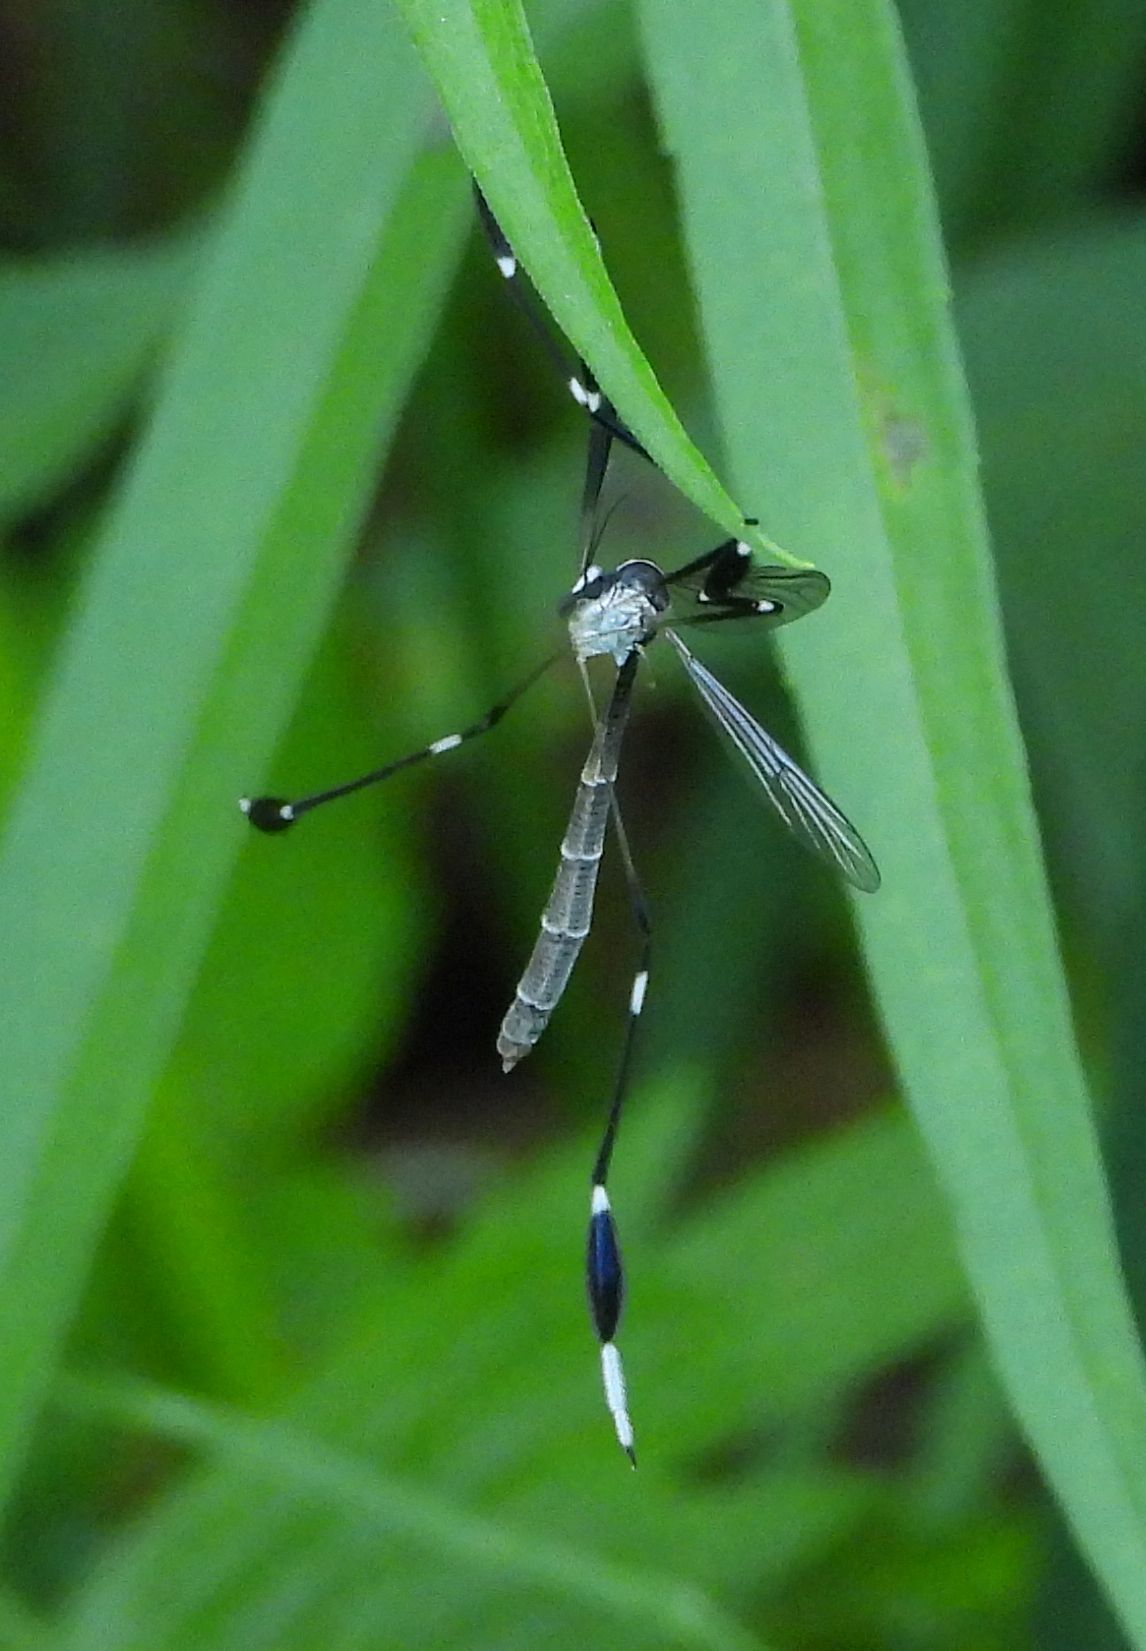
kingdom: Animalia
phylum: Arthropoda
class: Insecta
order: Diptera
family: Ptychopteridae
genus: Bittacomorpha
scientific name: Bittacomorpha clavipes
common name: Eastern phantom crane fly
